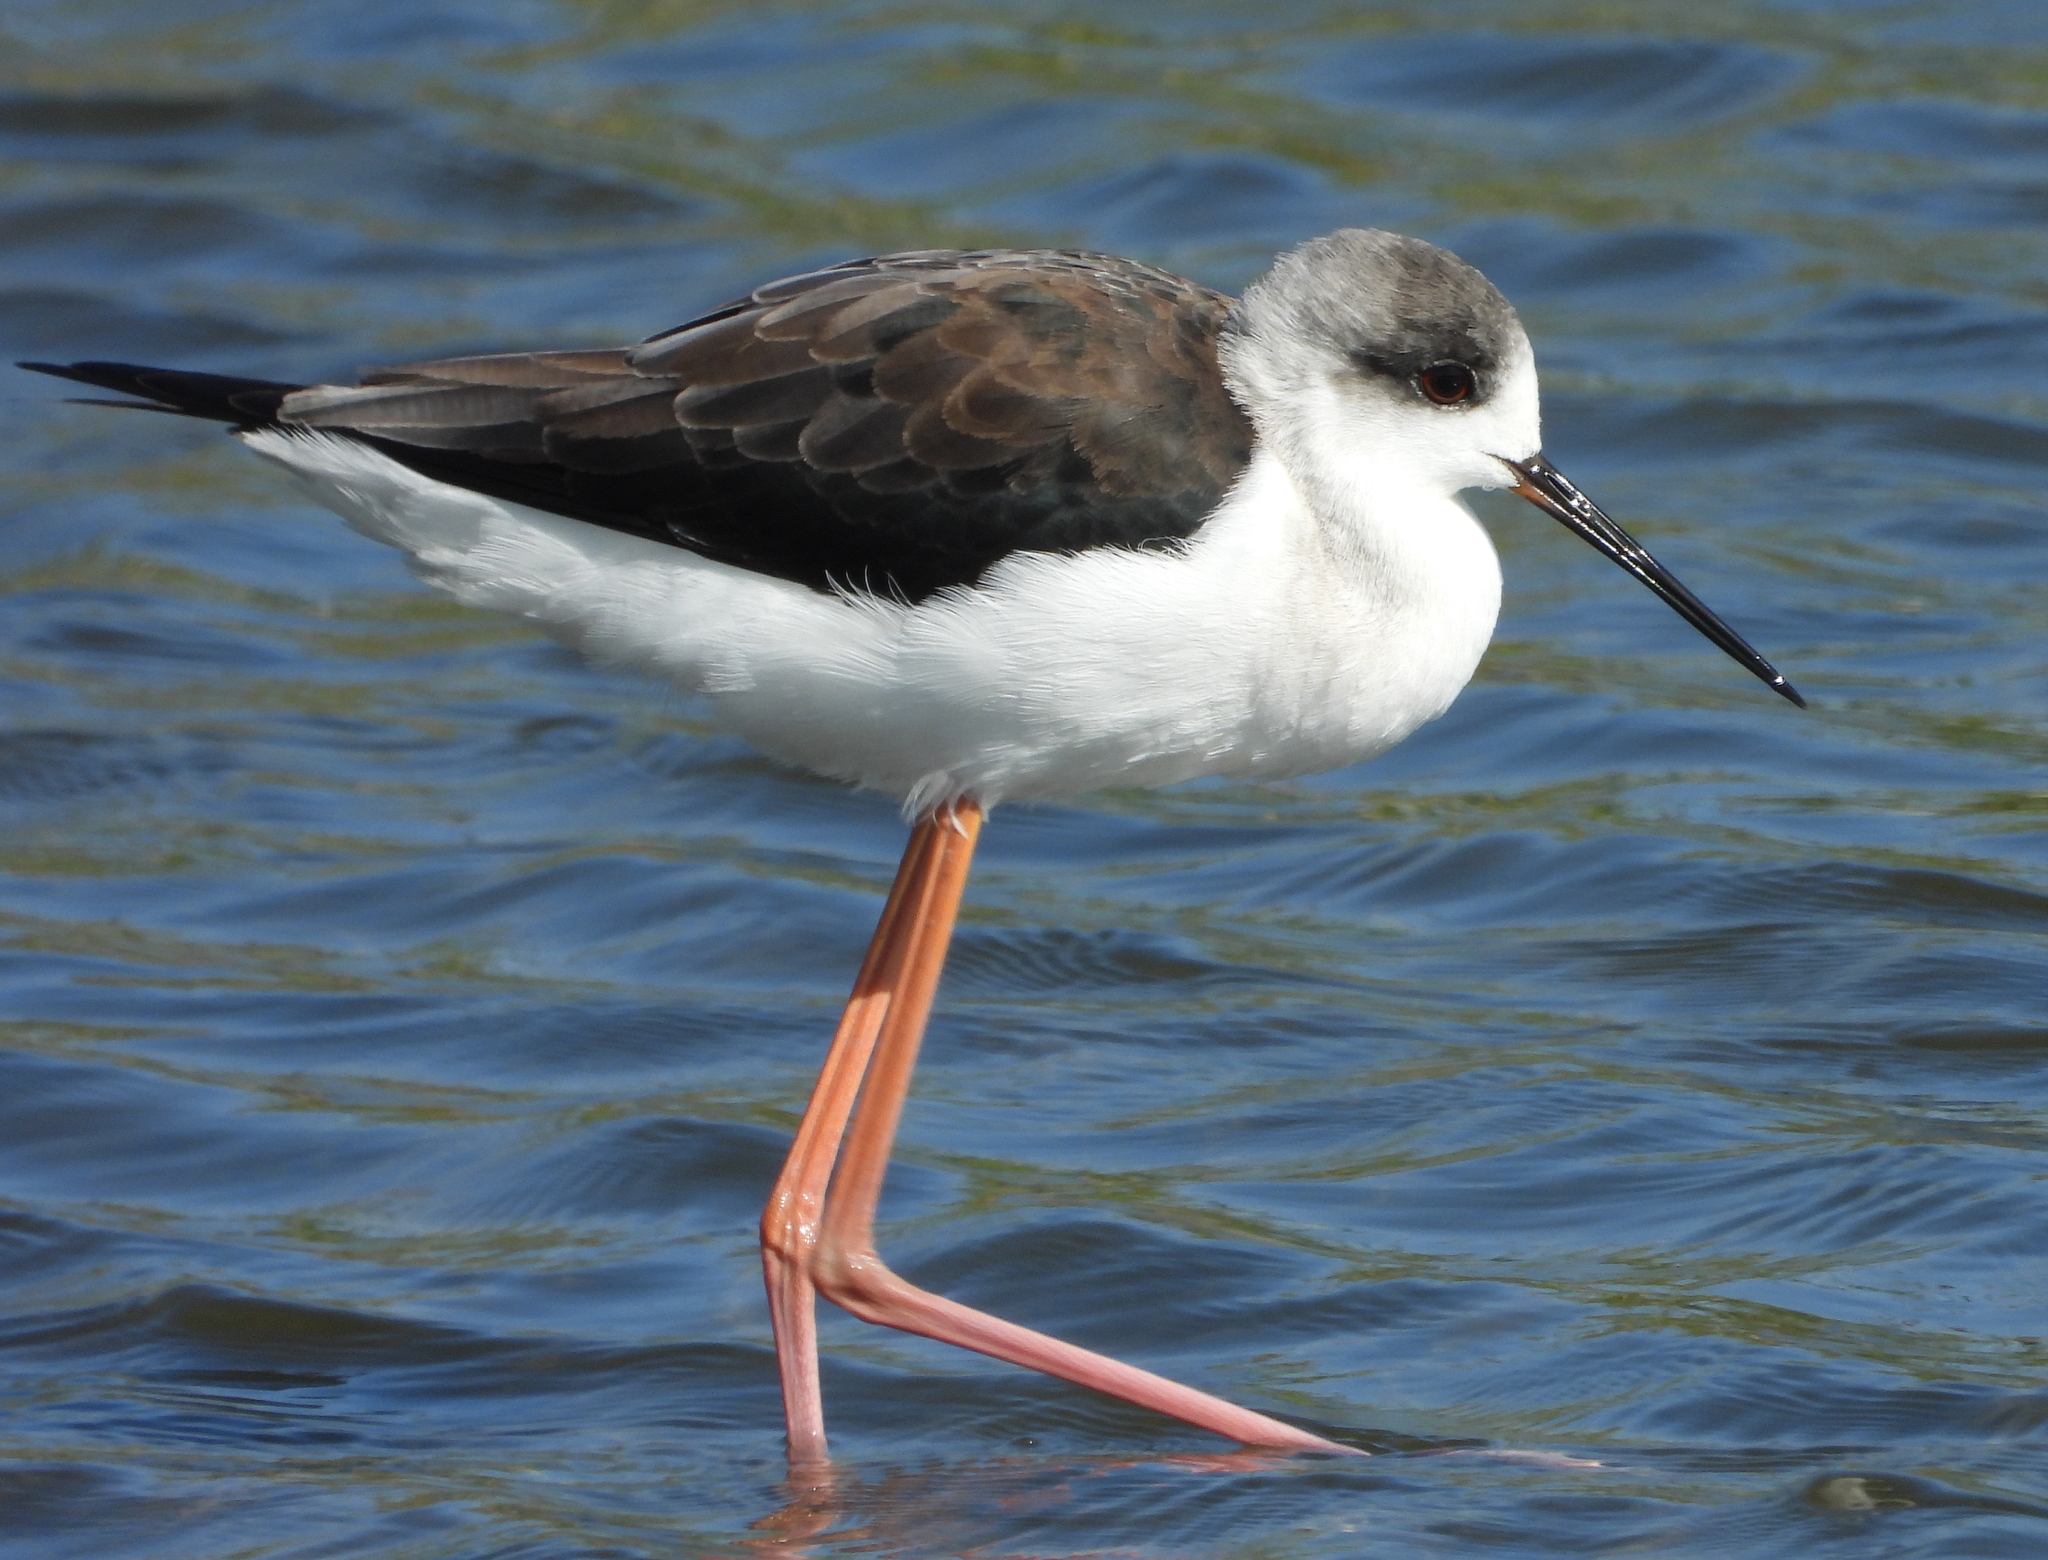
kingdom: Animalia
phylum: Chordata
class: Aves
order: Charadriiformes
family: Recurvirostridae
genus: Himantopus
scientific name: Himantopus himantopus
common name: Black-winged stilt
